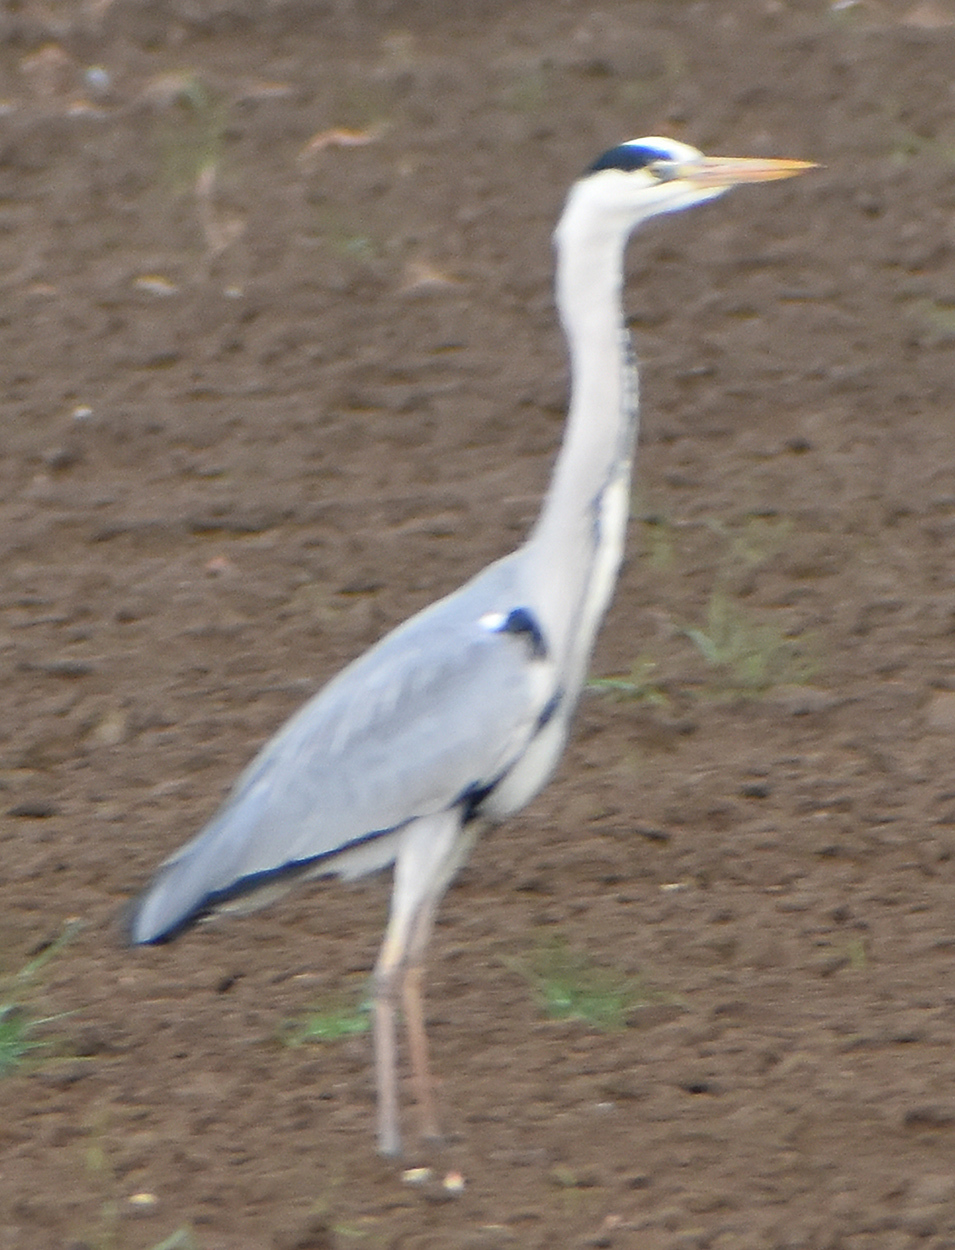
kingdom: Animalia
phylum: Chordata
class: Aves
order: Pelecaniformes
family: Ardeidae
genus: Ardea
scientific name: Ardea cinerea
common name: Grey heron
